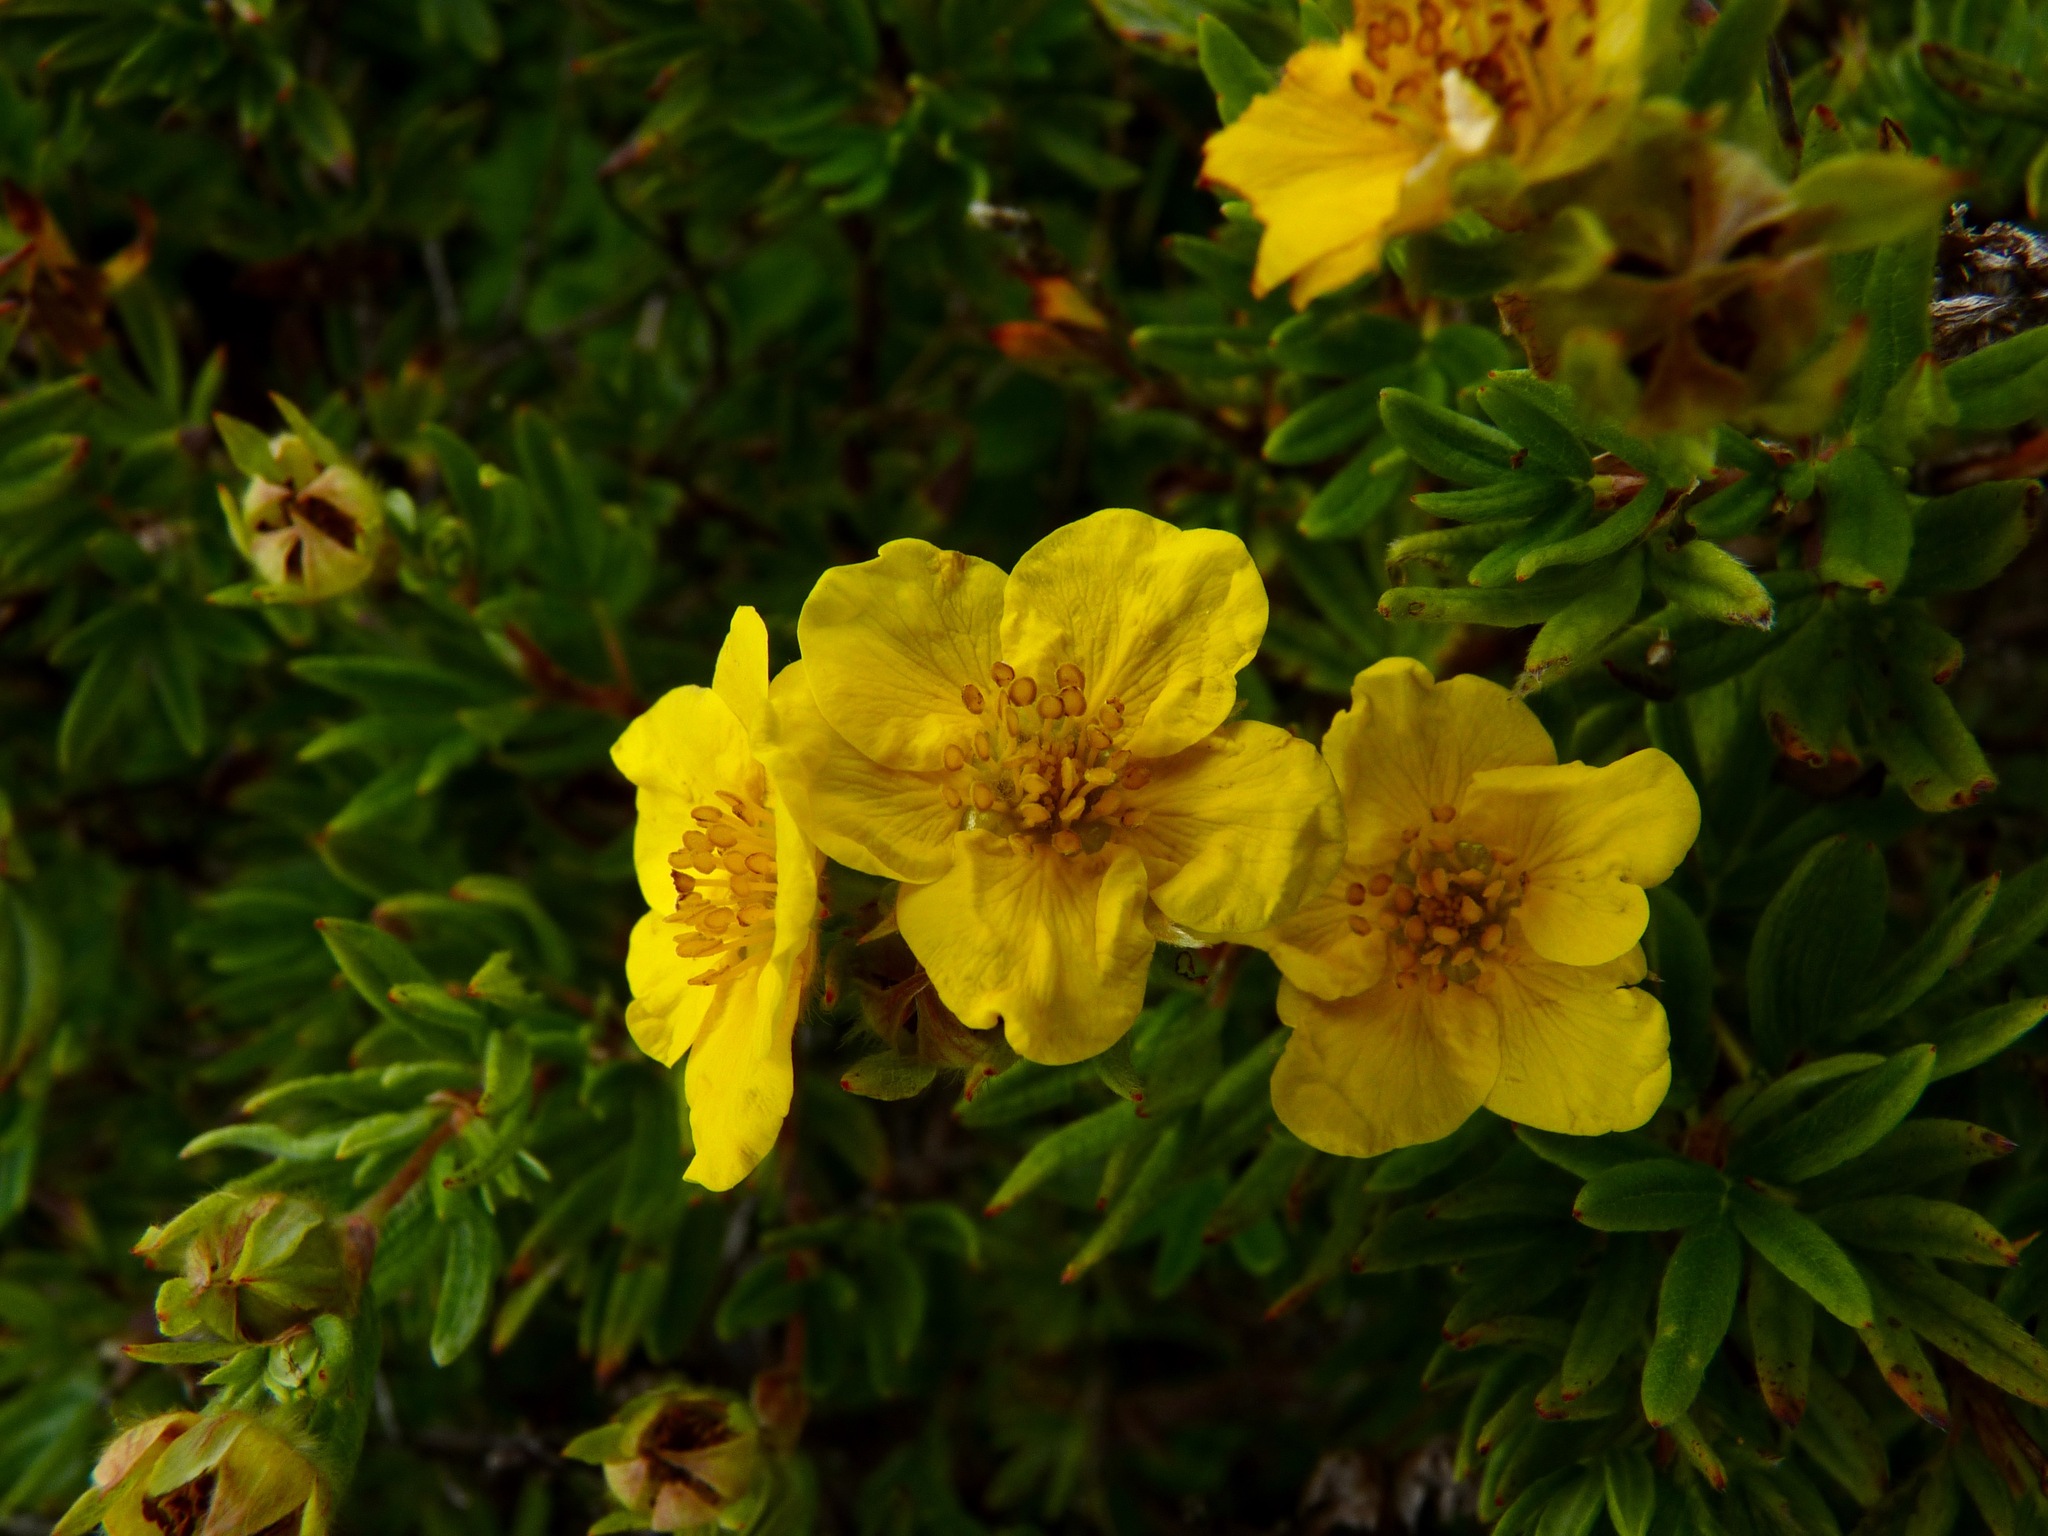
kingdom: Plantae
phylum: Tracheophyta
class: Magnoliopsida
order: Rosales
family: Rosaceae
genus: Dasiphora
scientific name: Dasiphora fruticosa
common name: Shrubby cinquefoil
